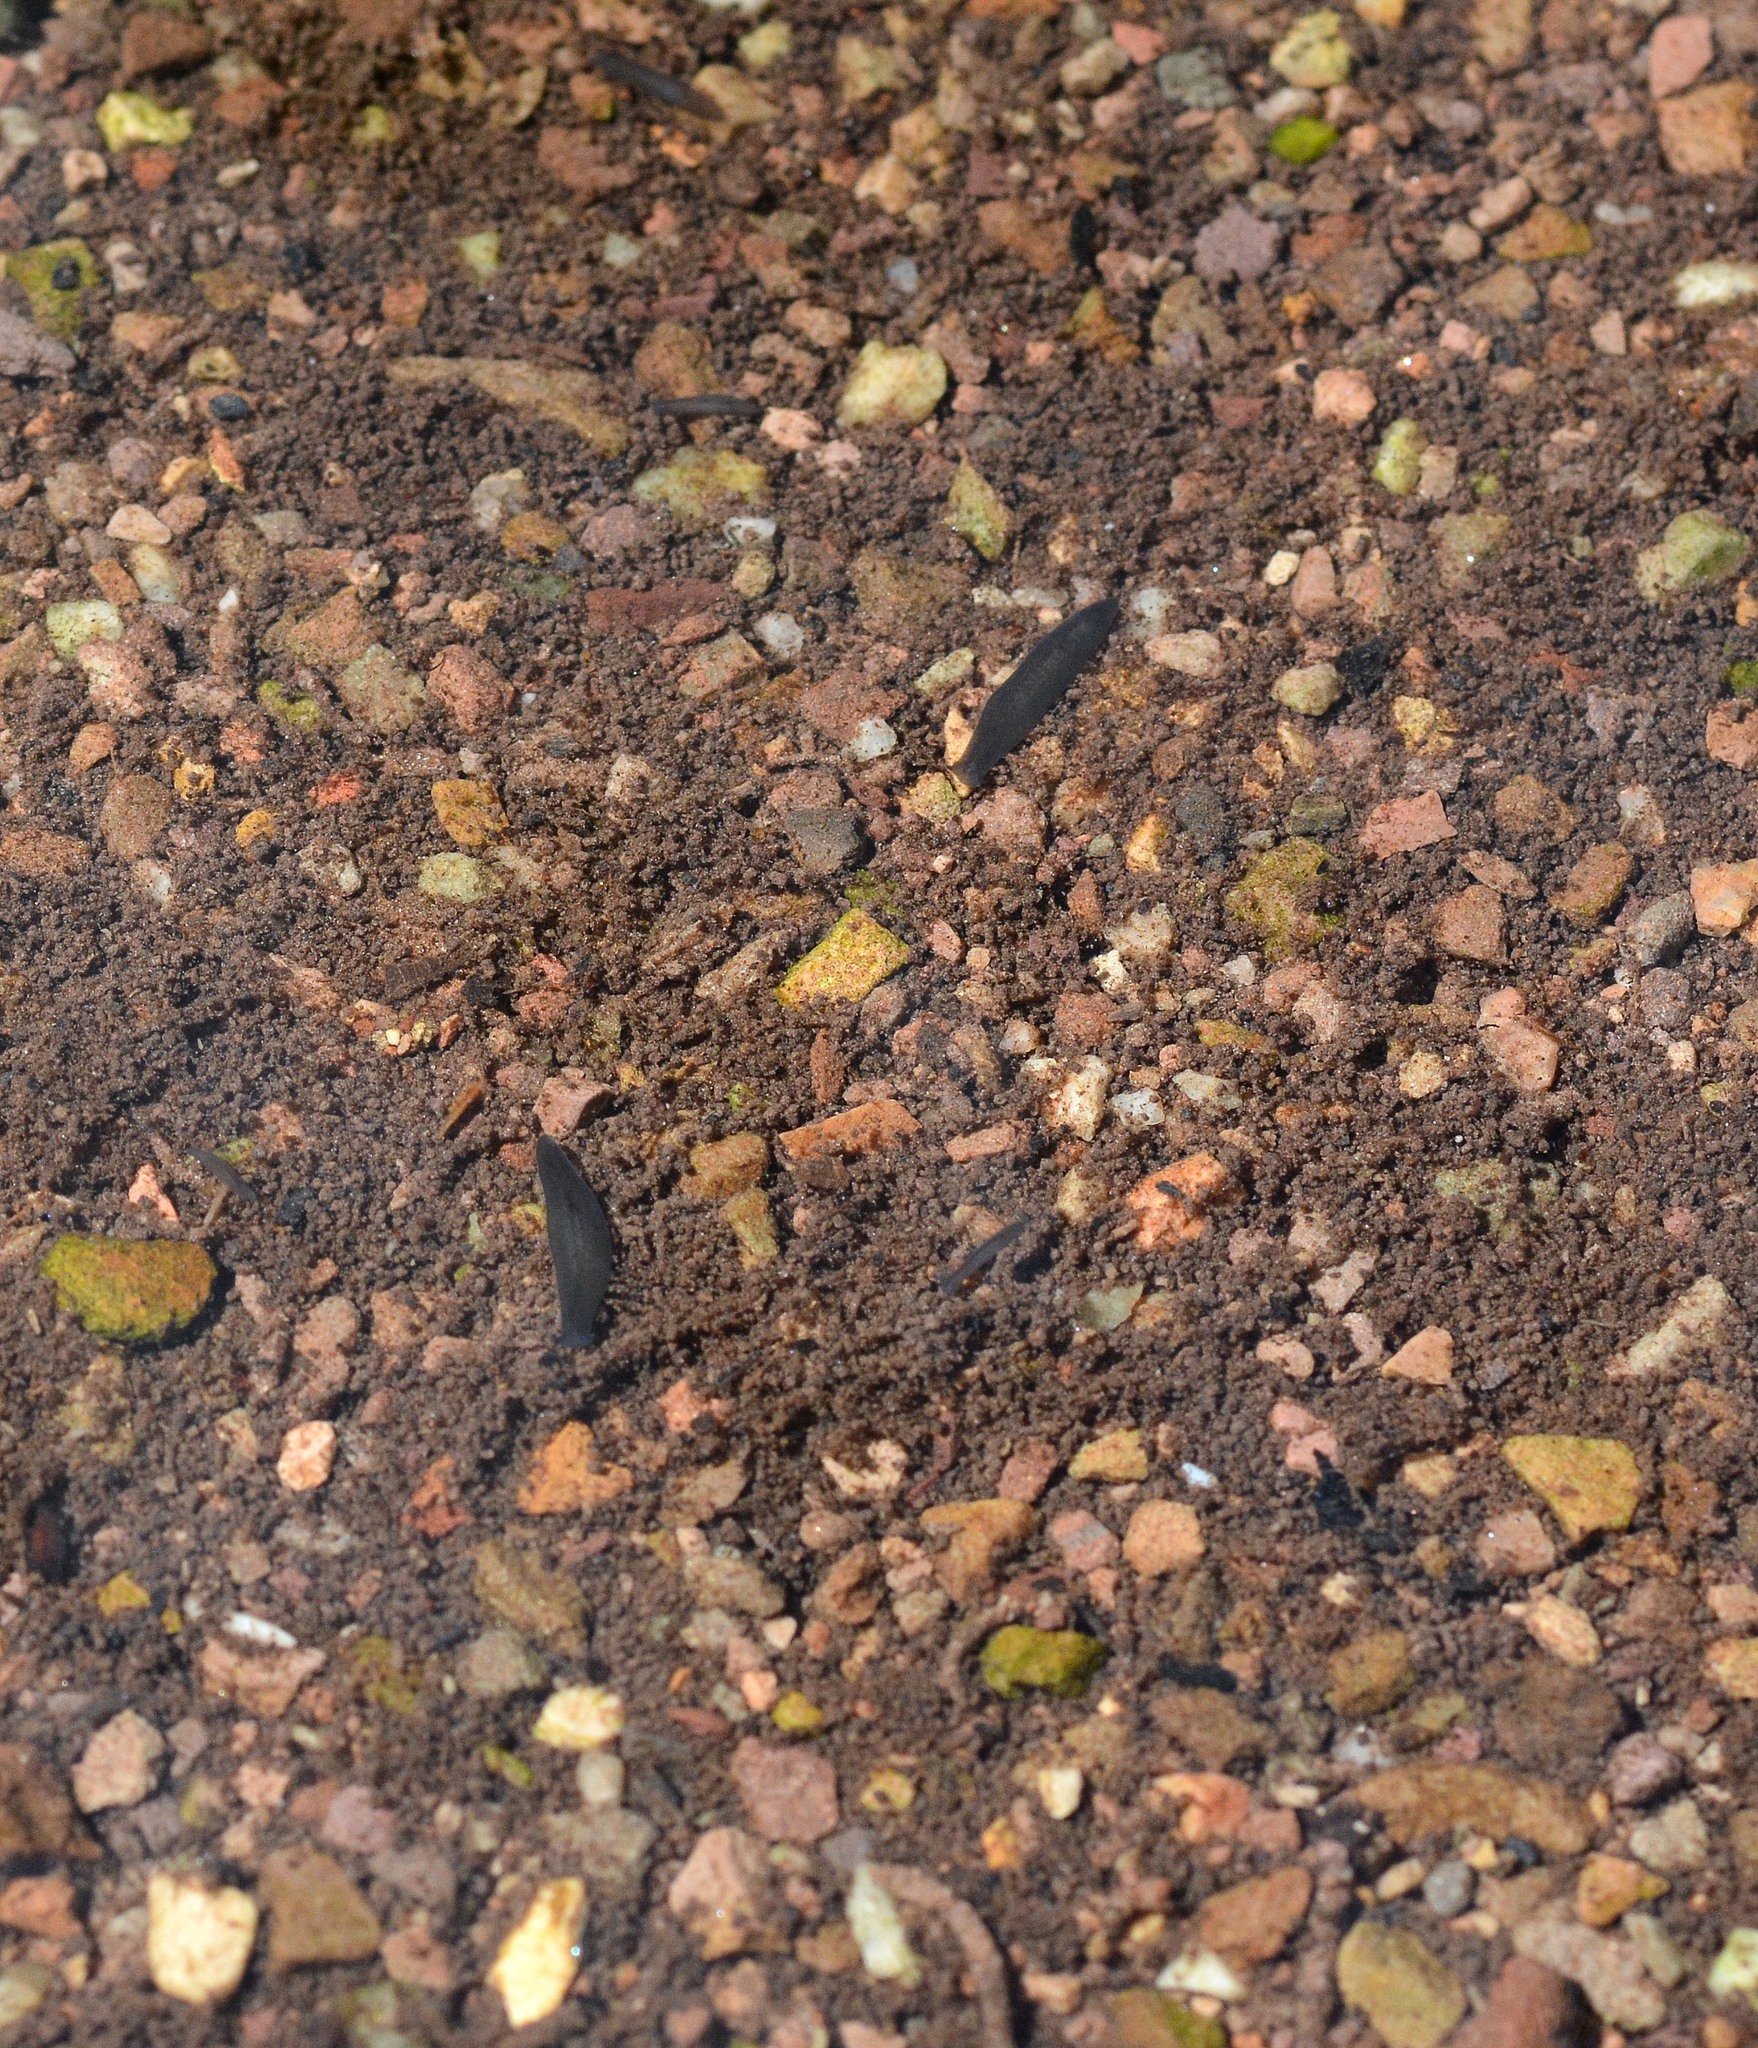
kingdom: Animalia
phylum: Platyhelminthes
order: Tricladida
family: Planariidae
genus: Polycelis
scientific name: Polycelis felina
